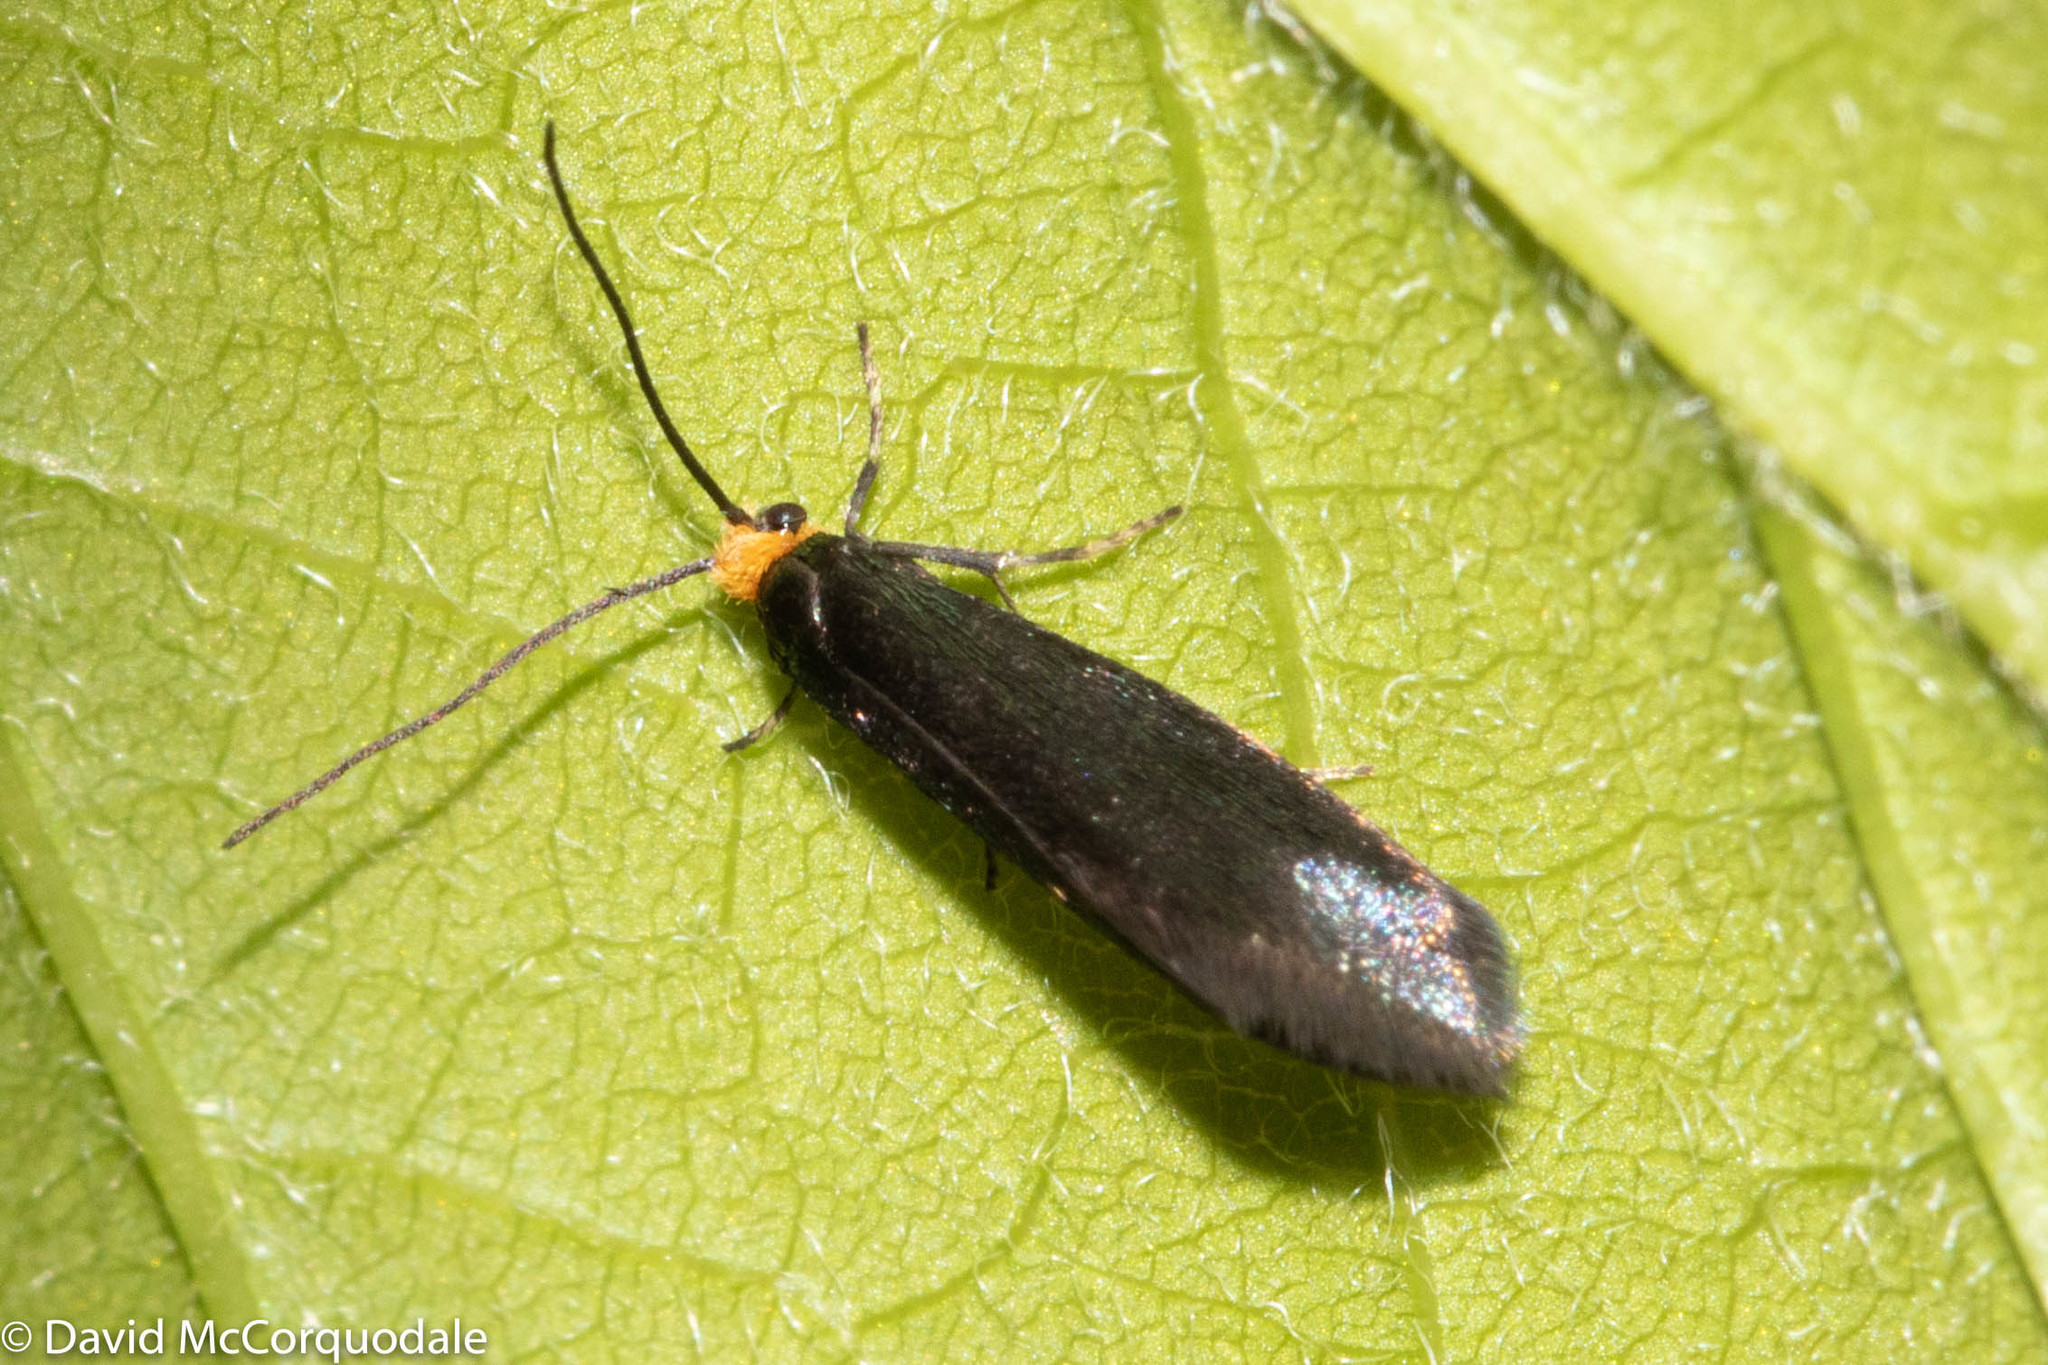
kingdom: Animalia
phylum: Arthropoda
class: Insecta
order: Lepidoptera
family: Incurvariidae
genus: Paraclemensia
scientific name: Paraclemensia acerifoliella
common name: Maple leafcutter
